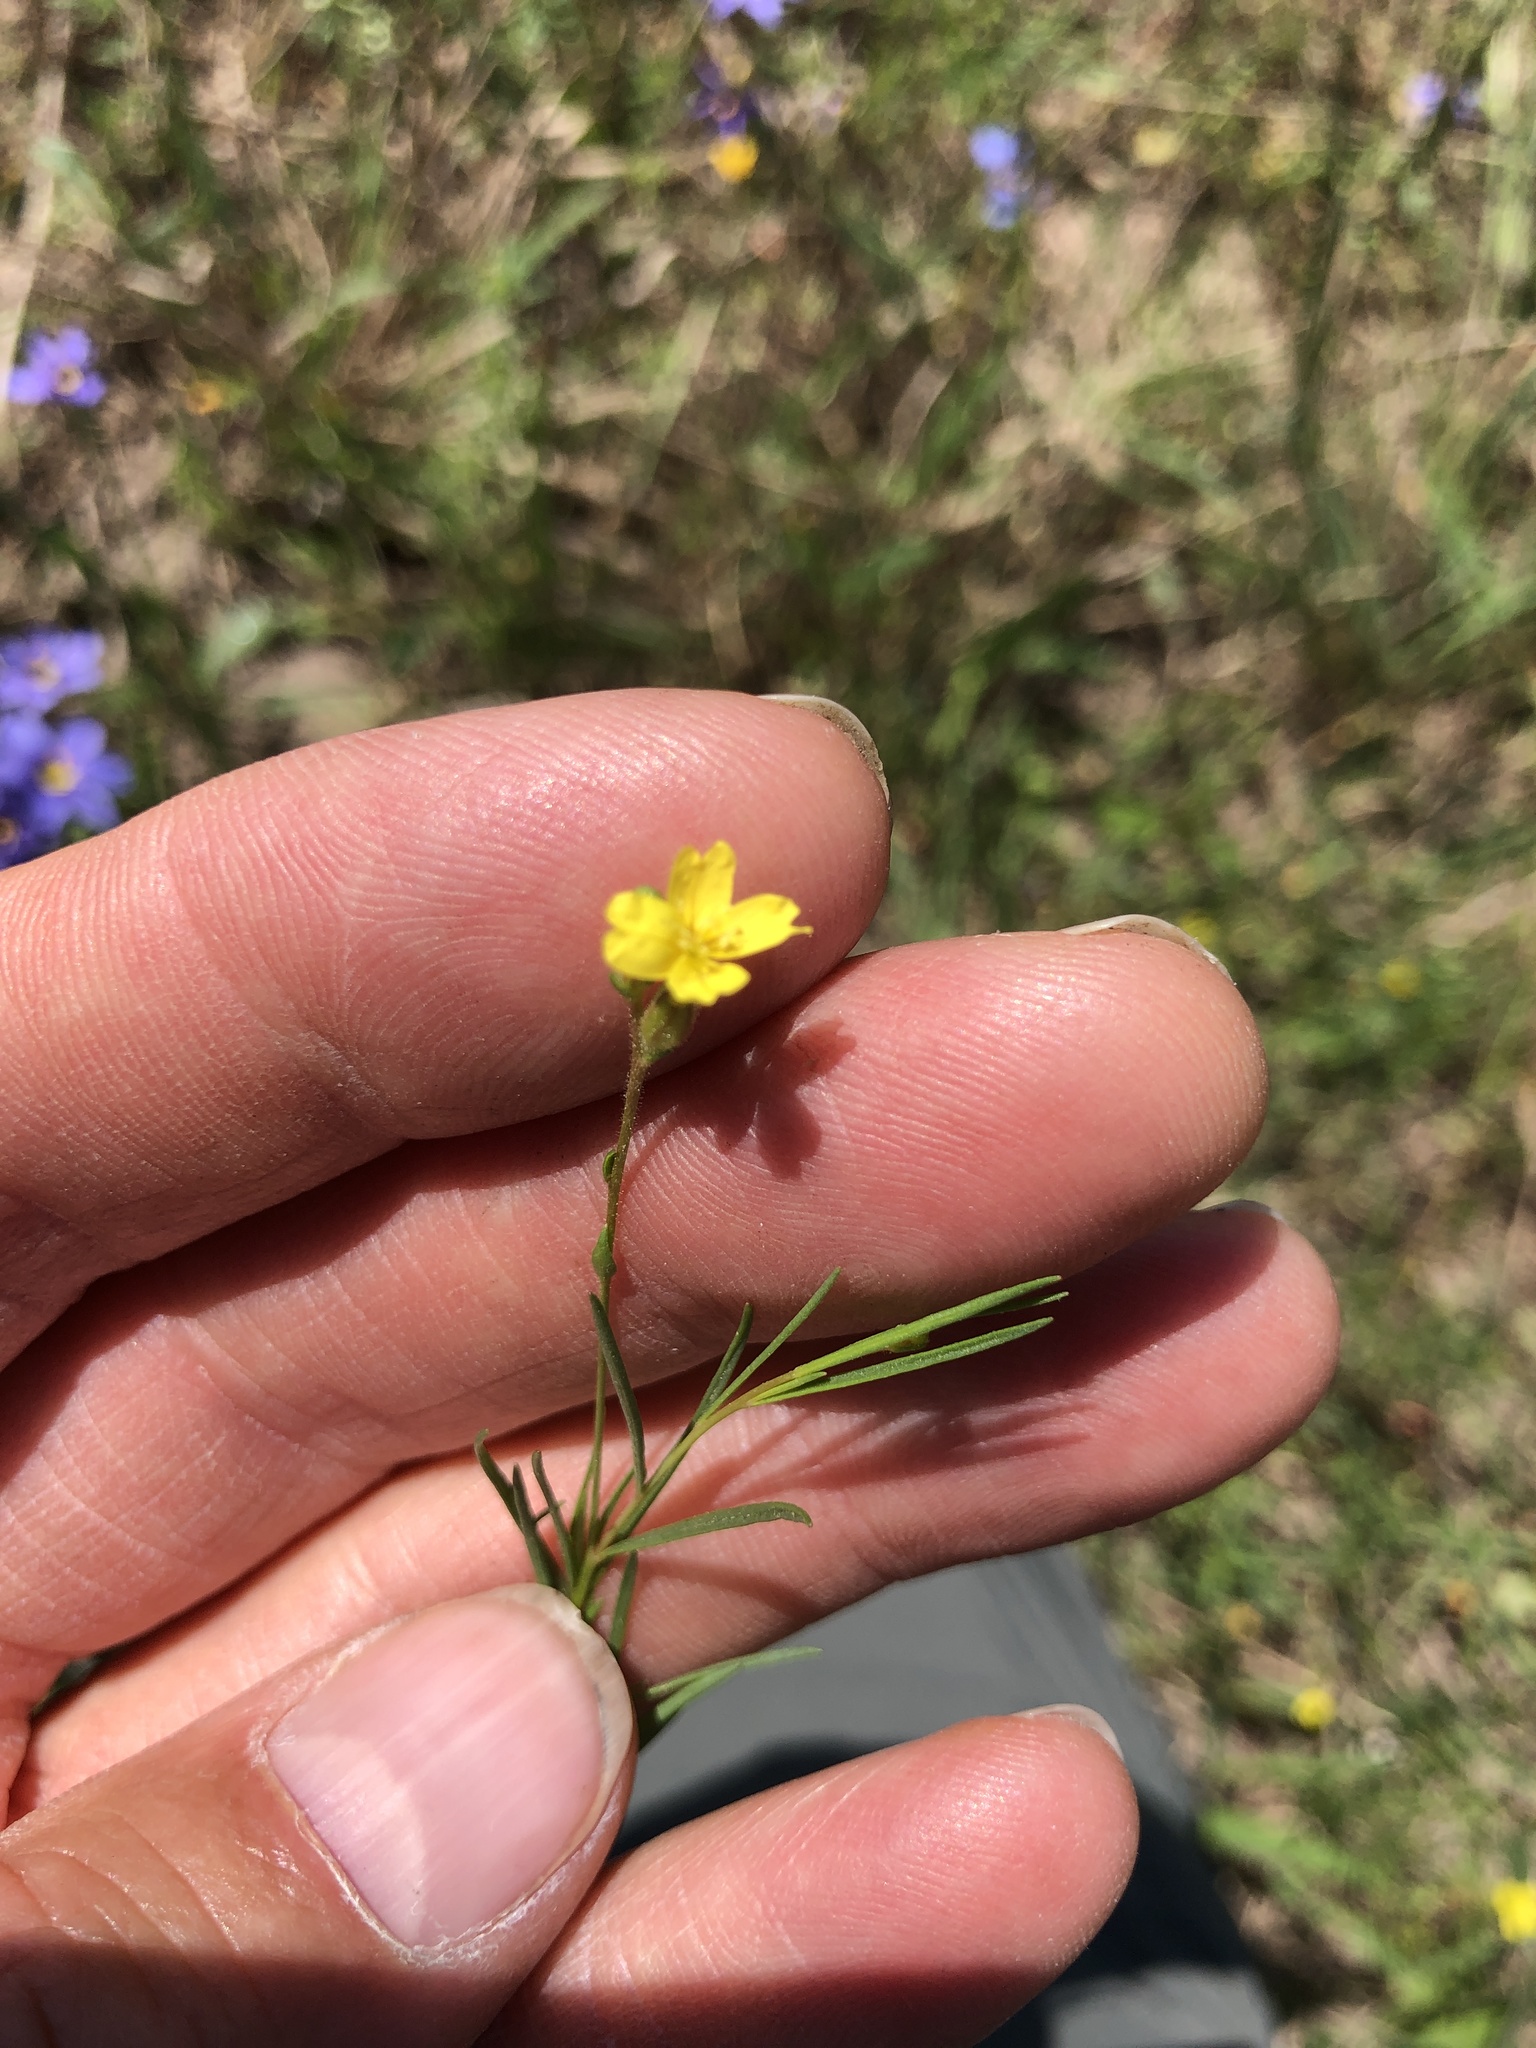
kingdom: Plantae
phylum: Tracheophyta
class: Magnoliopsida
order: Myrtales
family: Onagraceae
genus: Oenothera
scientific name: Oenothera linifolia
